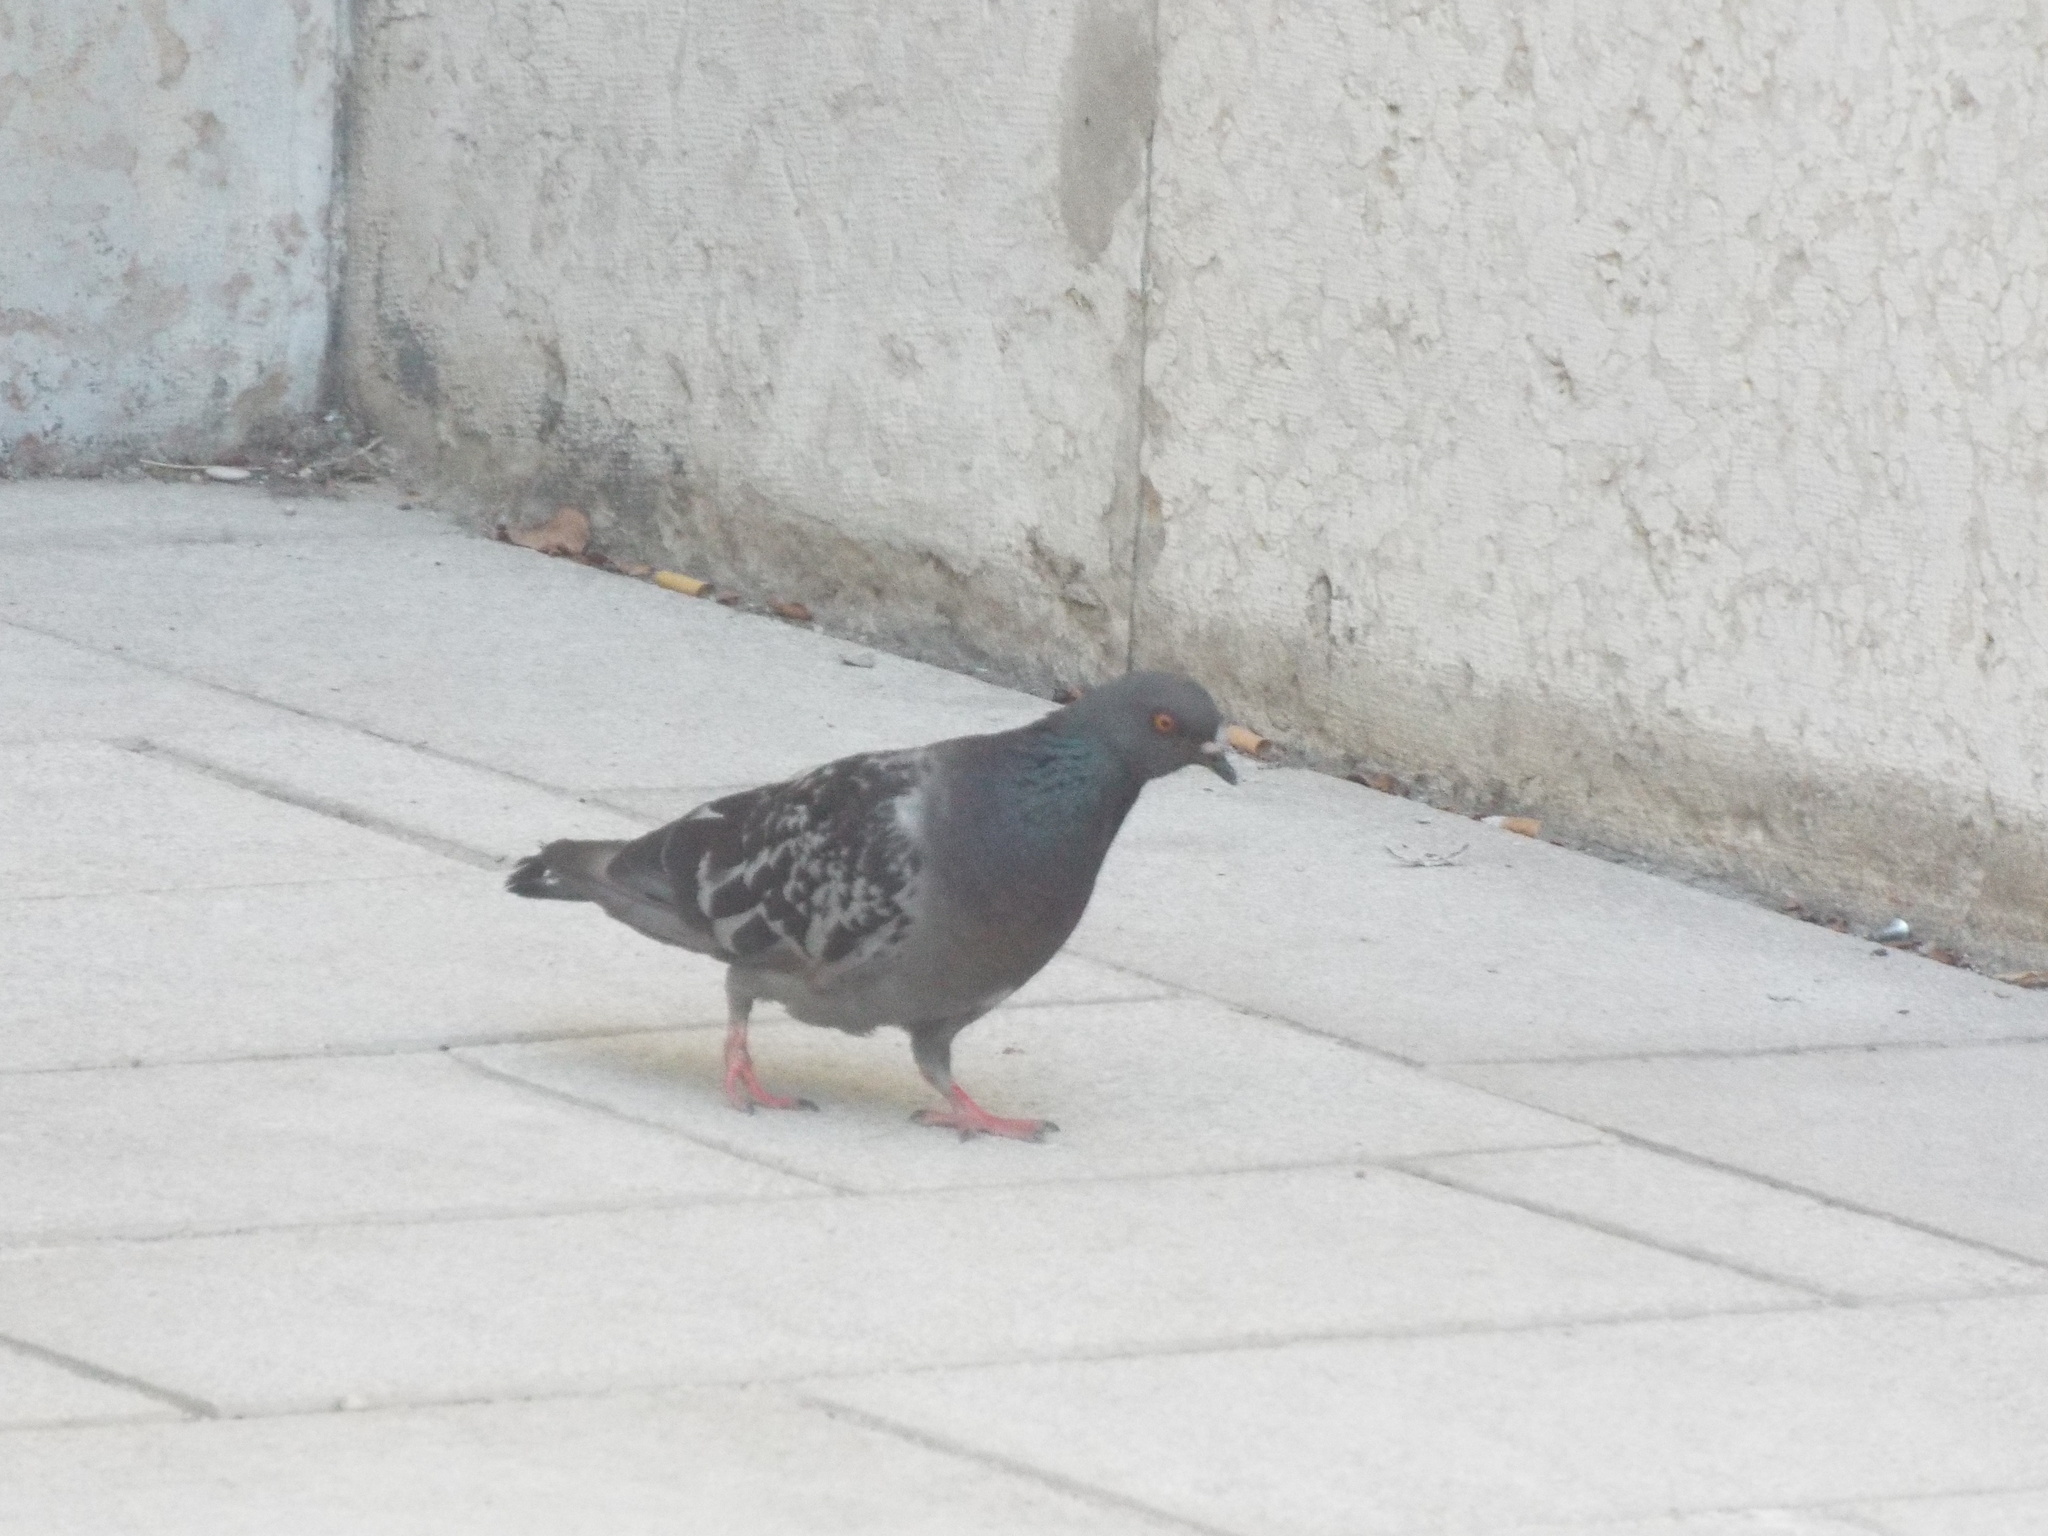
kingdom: Animalia
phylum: Chordata
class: Aves
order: Columbiformes
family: Columbidae
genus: Columba
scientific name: Columba livia
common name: Rock pigeon
